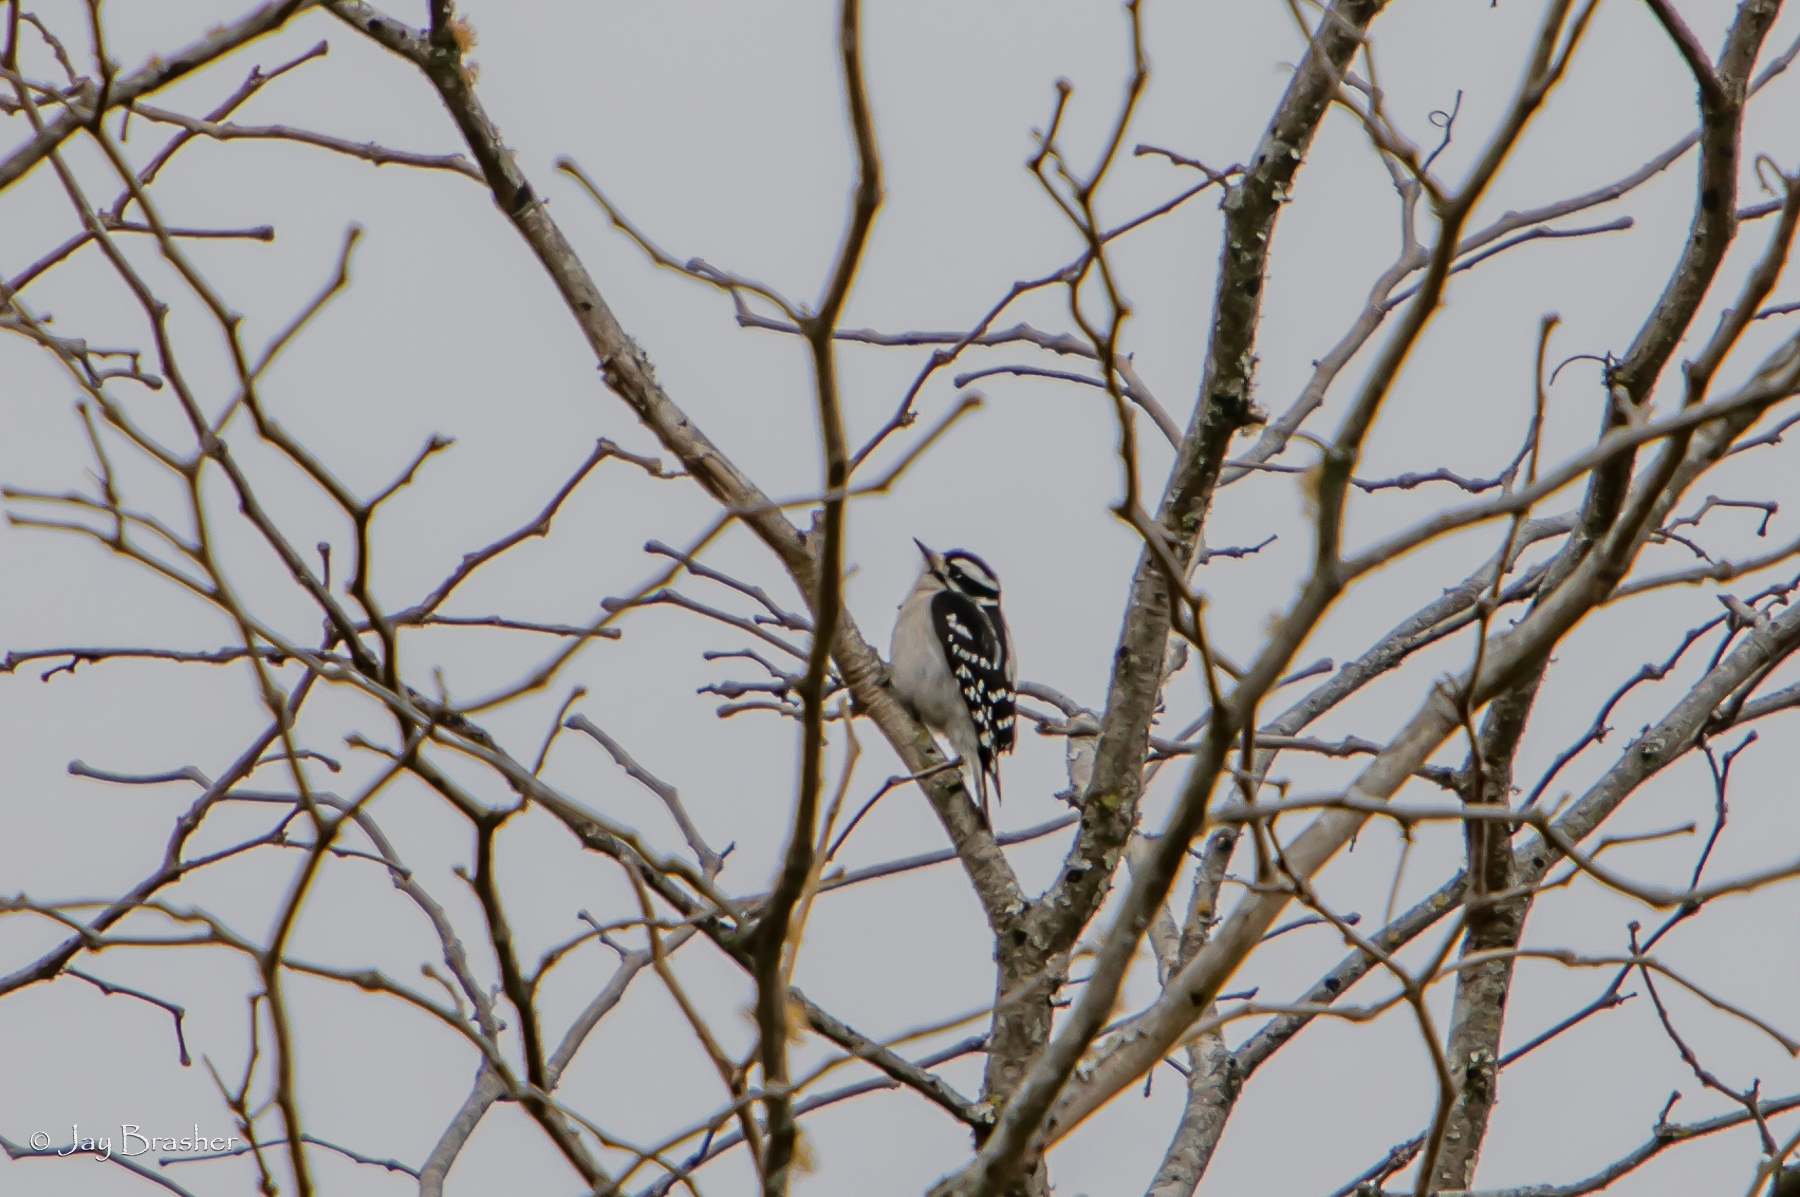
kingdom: Animalia
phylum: Chordata
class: Aves
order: Piciformes
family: Picidae
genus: Dryobates
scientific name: Dryobates pubescens
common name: Downy woodpecker
